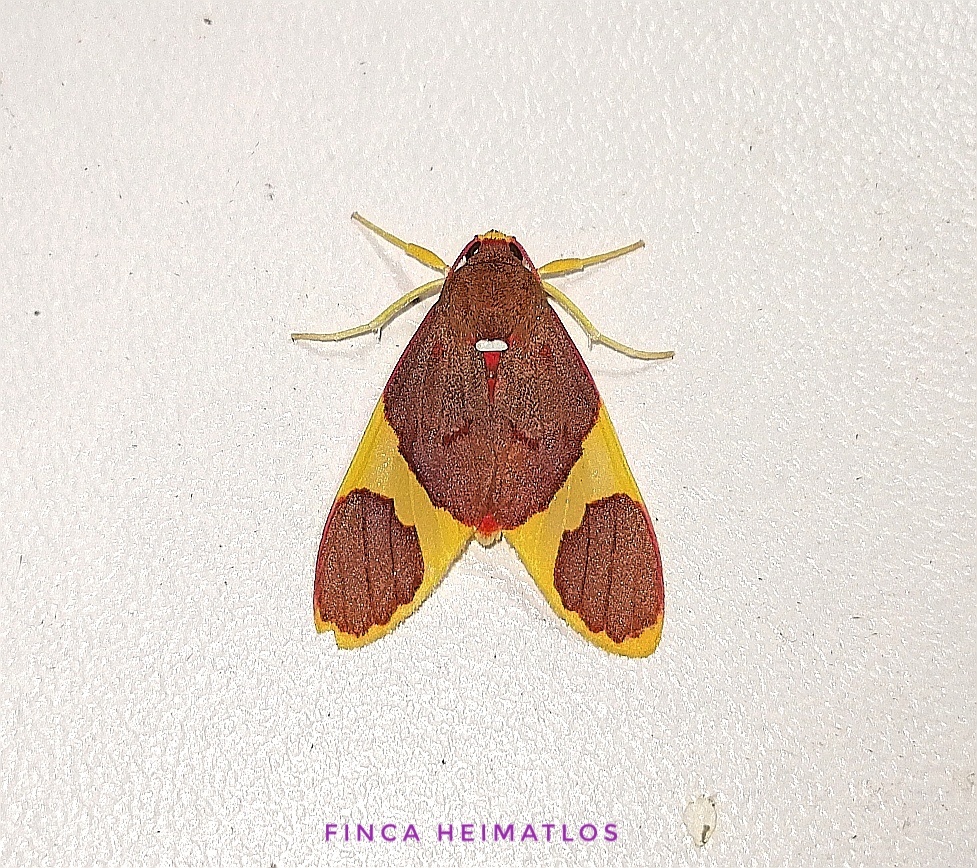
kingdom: Animalia
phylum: Arthropoda
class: Insecta
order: Lepidoptera
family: Erebidae
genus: Paranerita
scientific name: Paranerita lophosticta
